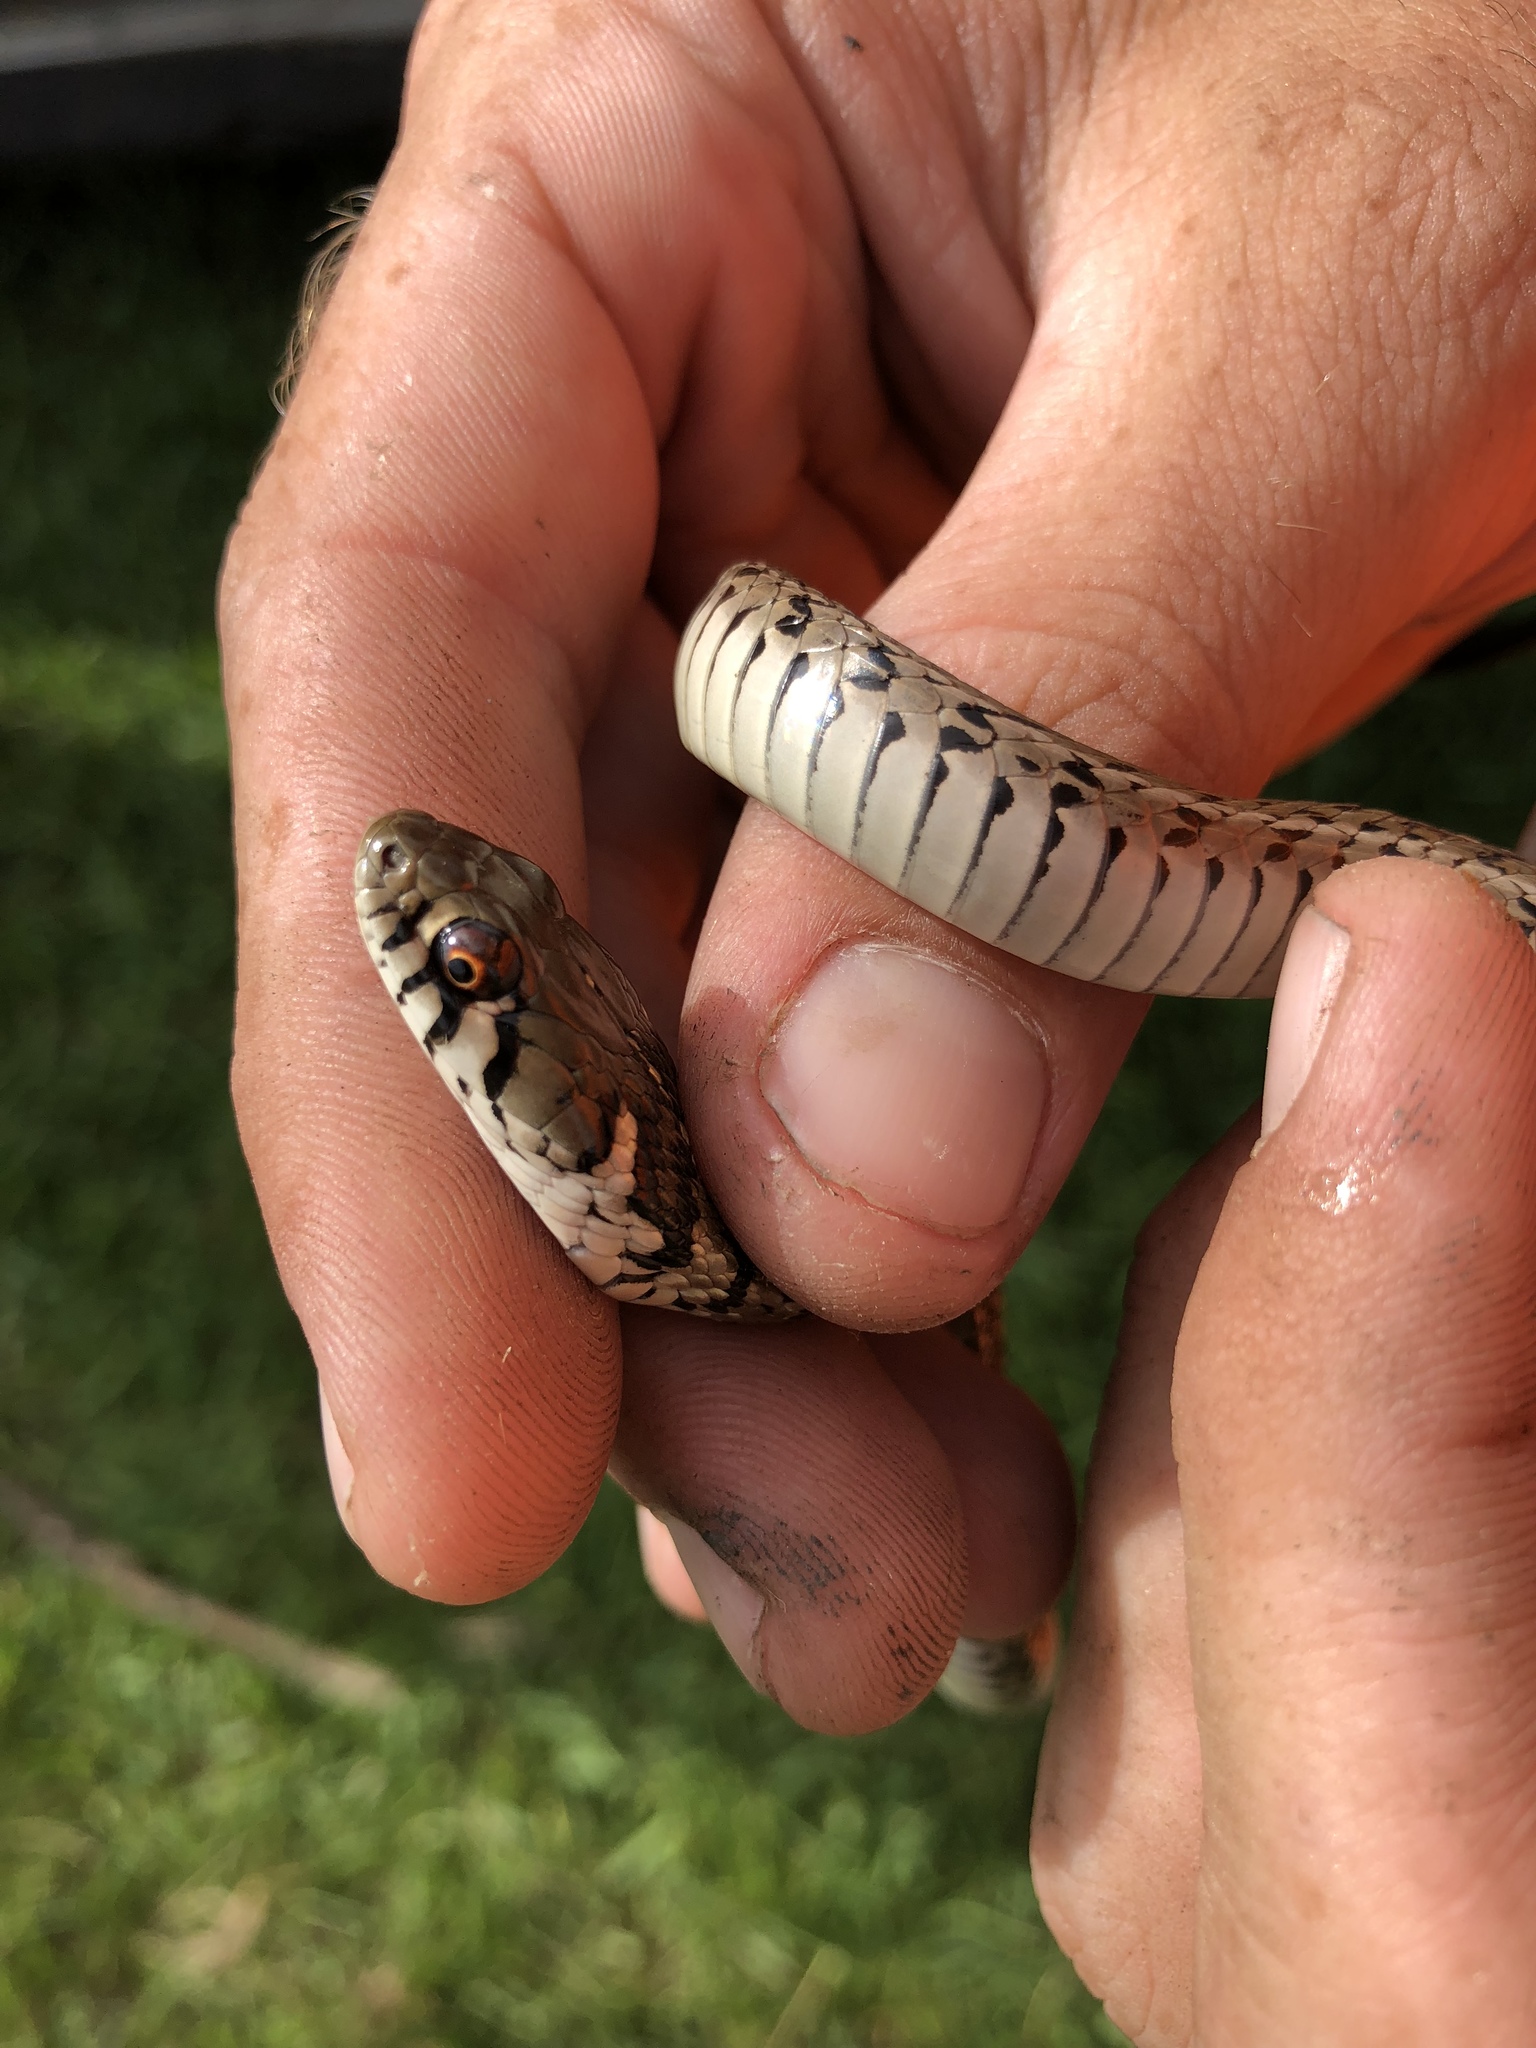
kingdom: Animalia
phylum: Chordata
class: Squamata
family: Colubridae
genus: Thamnophis
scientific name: Thamnophis marcianus
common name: Checkered garter snake
